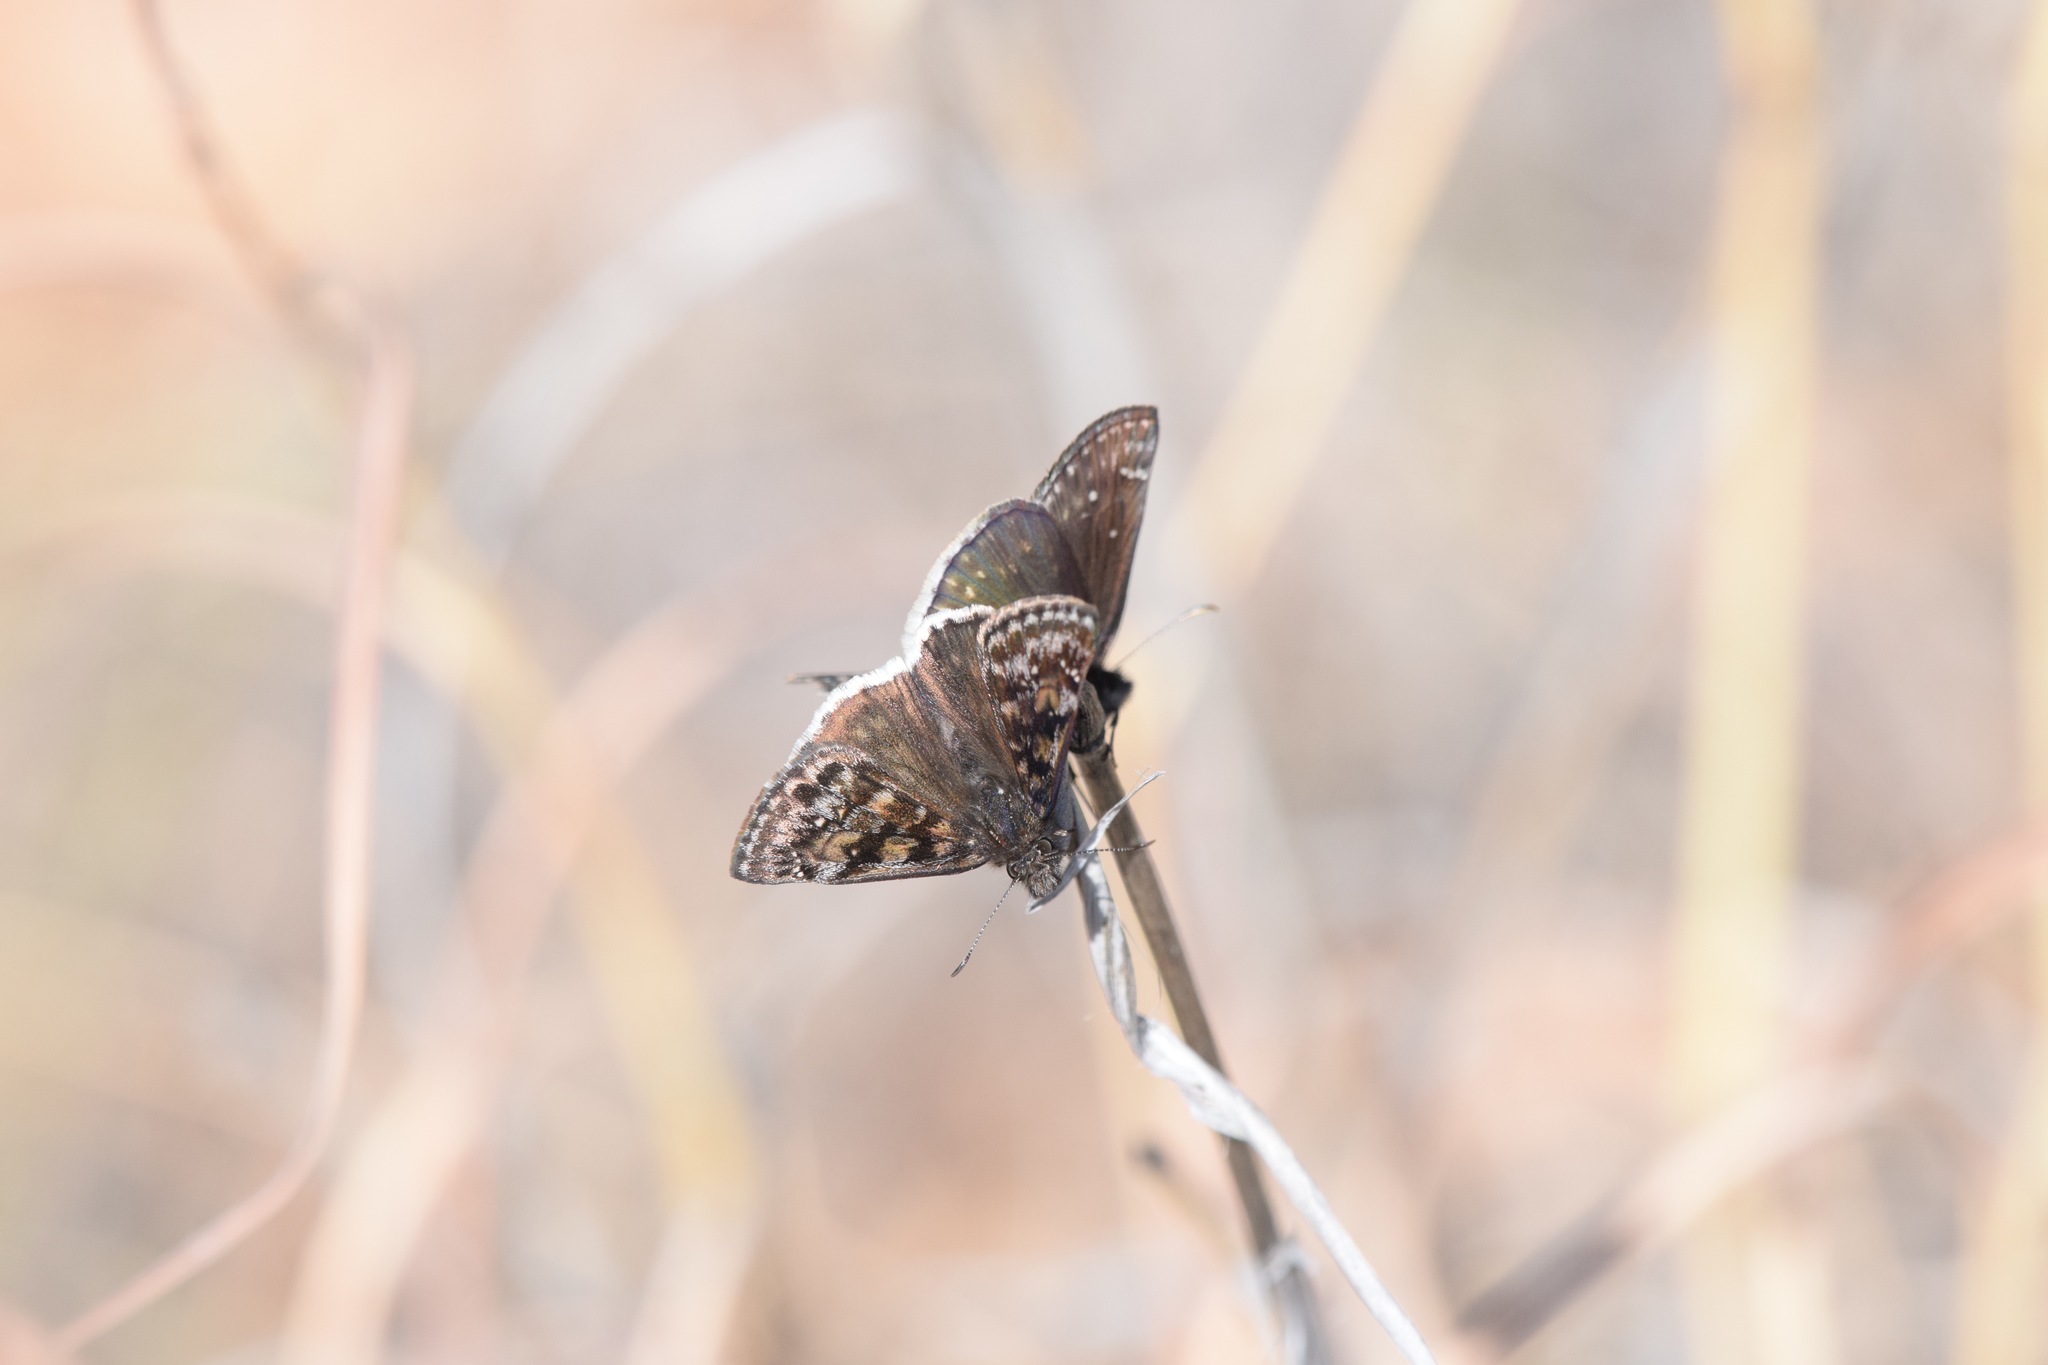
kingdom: Animalia
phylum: Arthropoda
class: Insecta
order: Lepidoptera
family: Hesperiidae
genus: Erynnis
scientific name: Erynnis pacuvius
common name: Pacuvius duskywing
